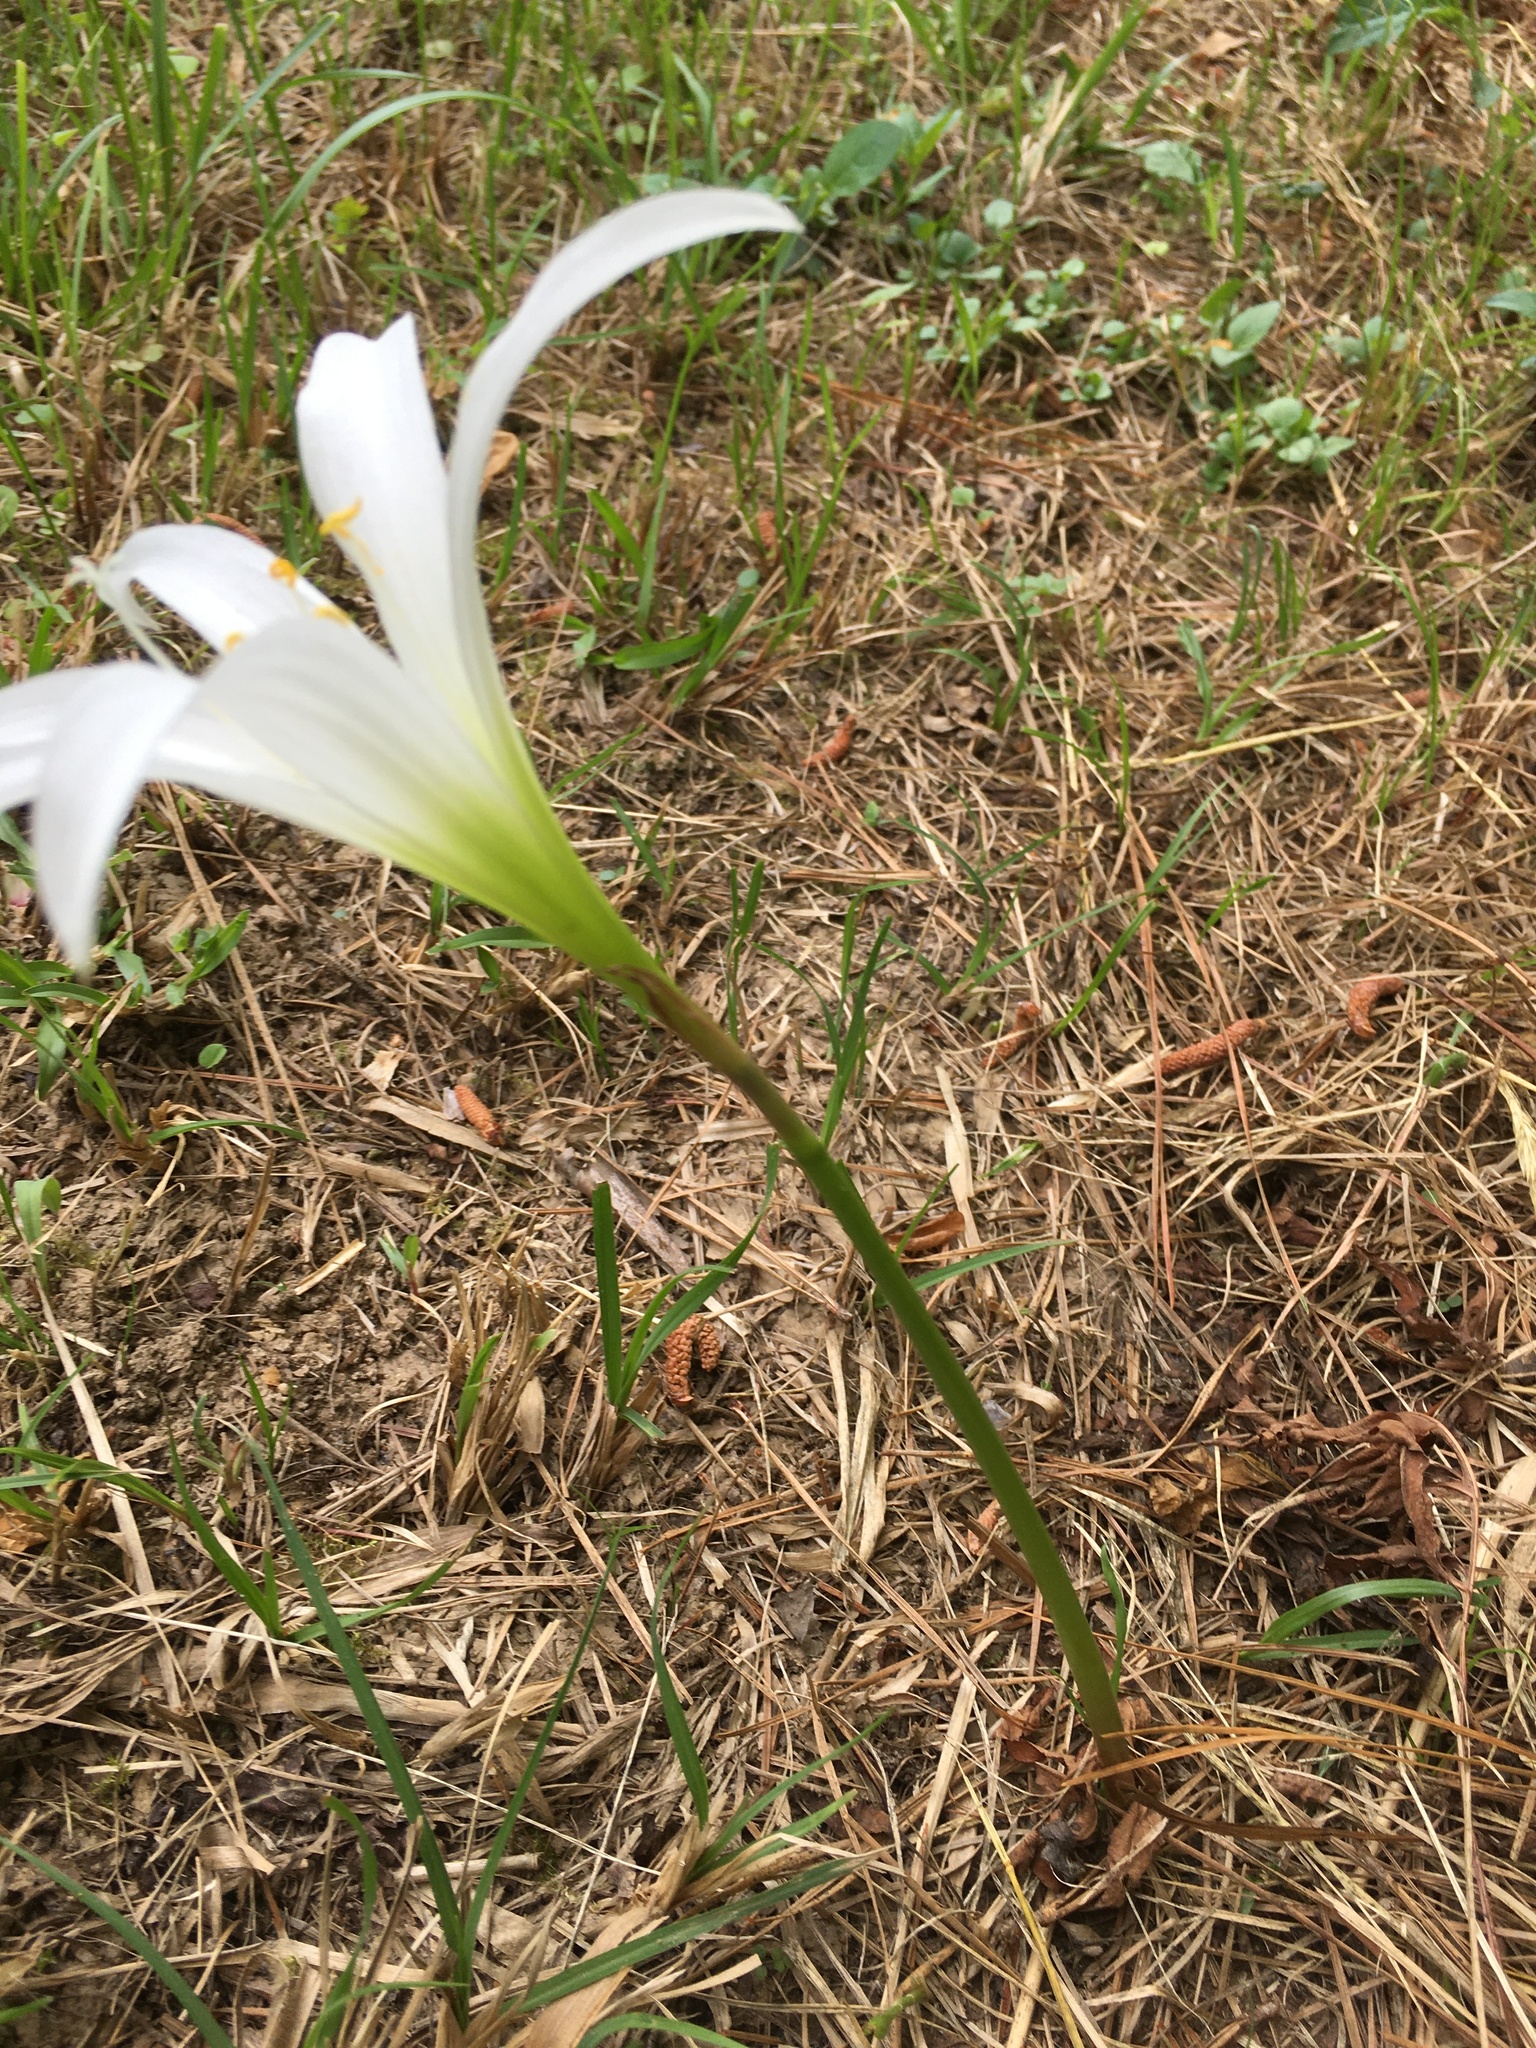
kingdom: Plantae
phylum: Tracheophyta
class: Liliopsida
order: Asparagales
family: Amaryllidaceae
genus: Zephyranthes
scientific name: Zephyranthes atamasco
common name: Atamasco lily
